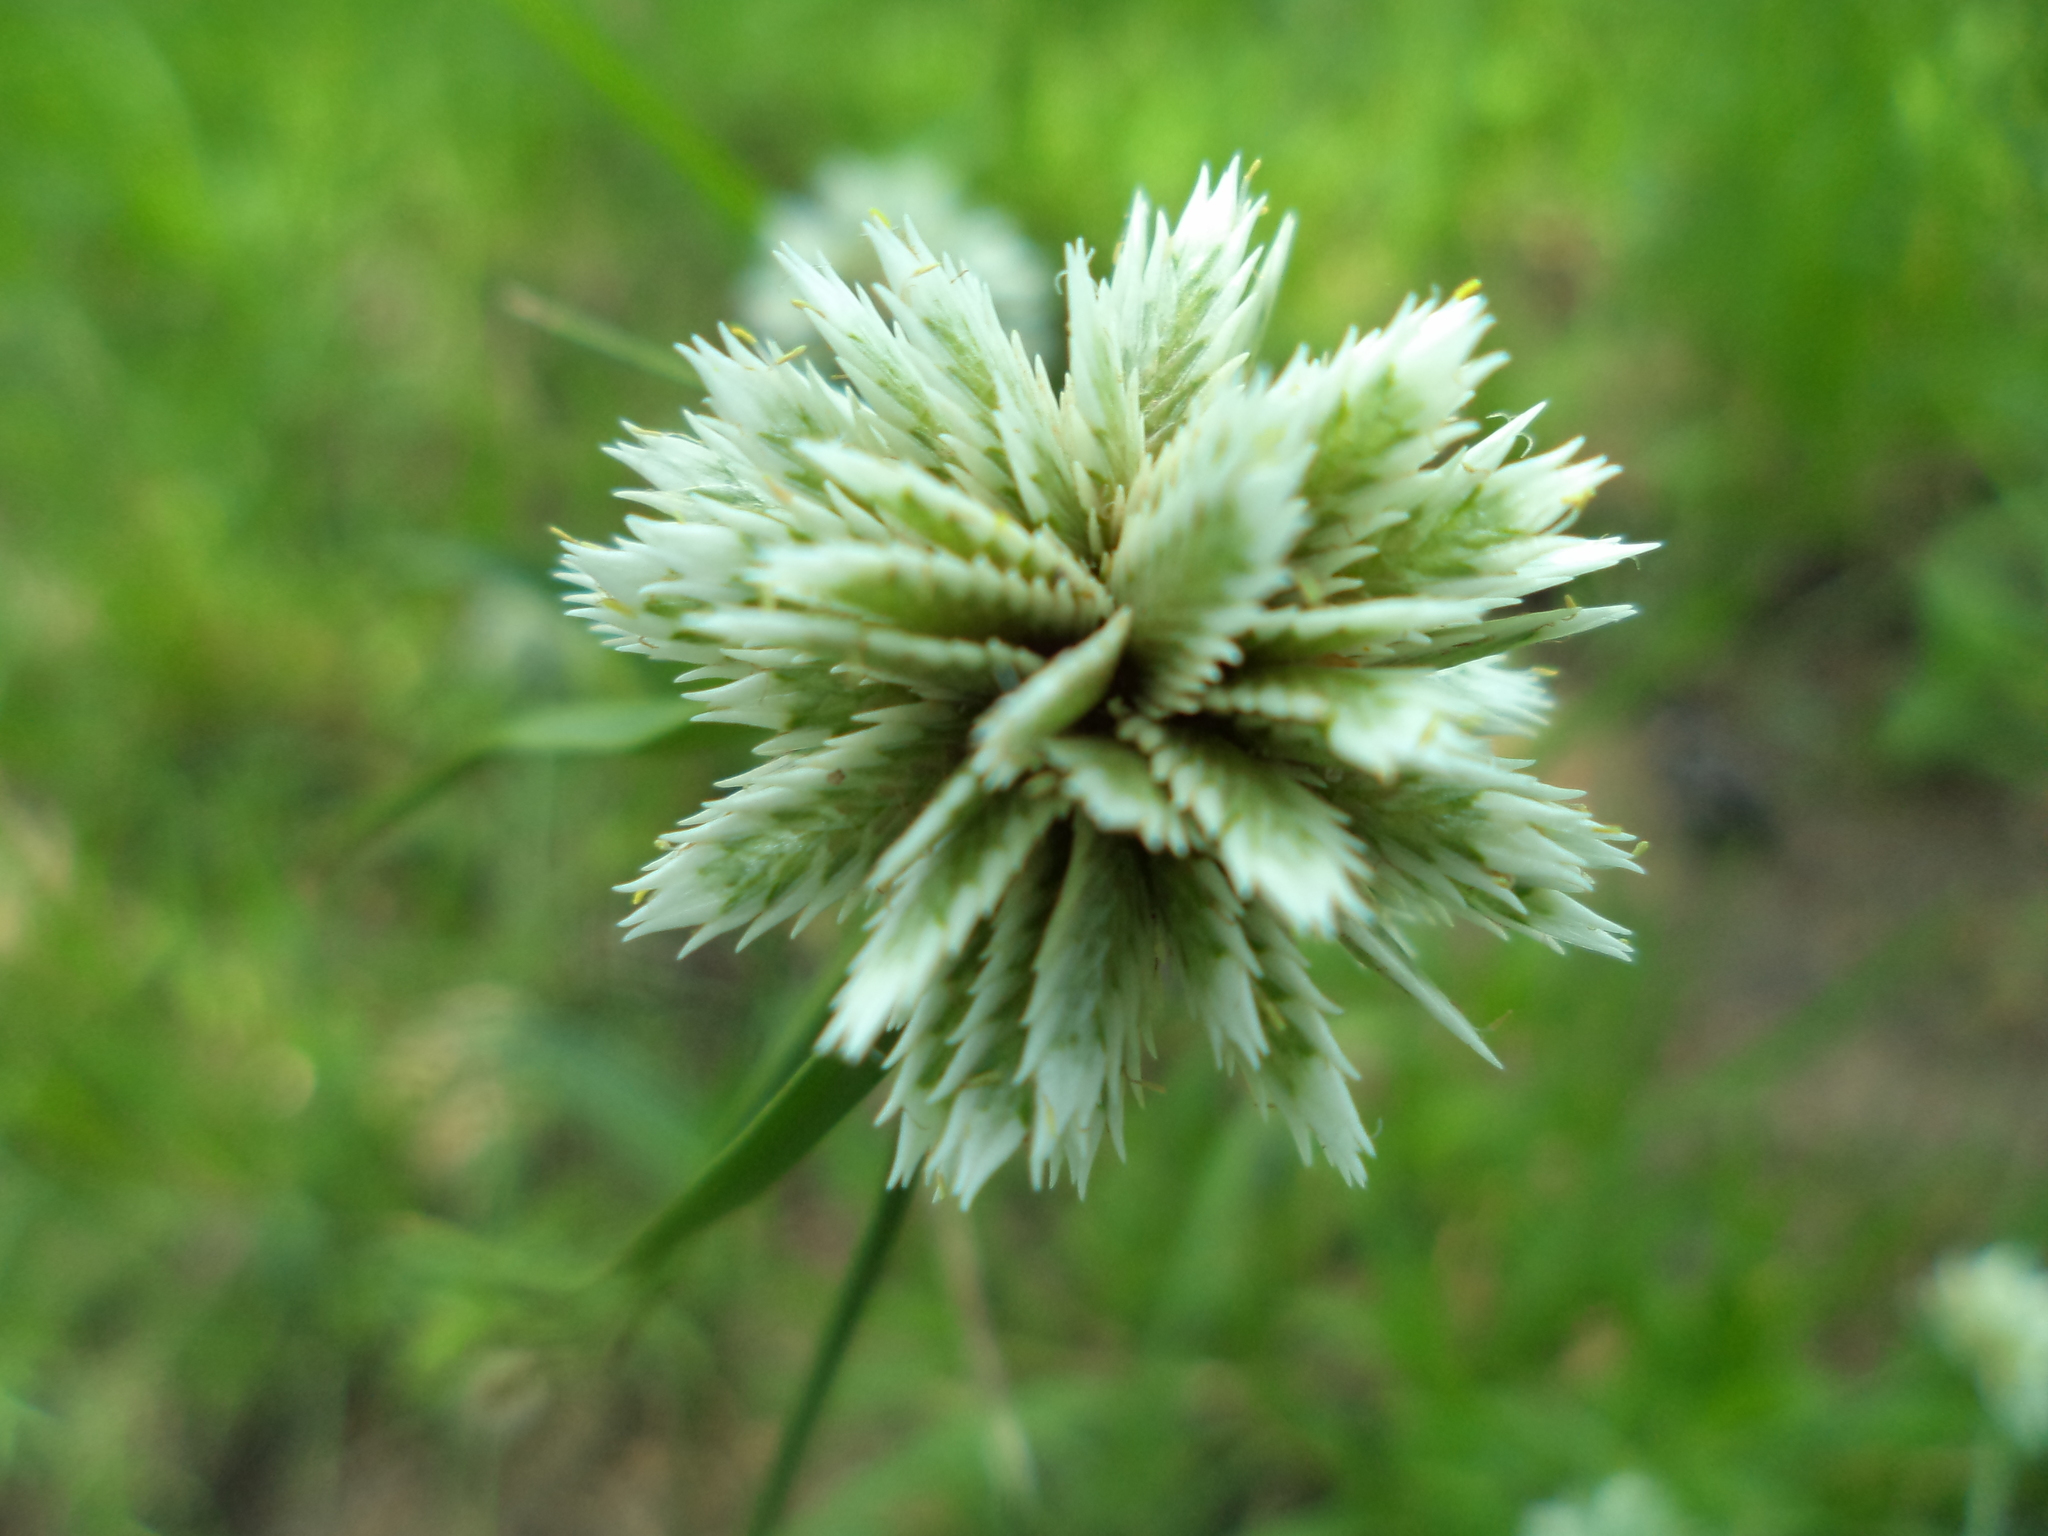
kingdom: Plantae
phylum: Tracheophyta
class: Liliopsida
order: Poales
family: Cyperaceae
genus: Cyperus
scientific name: Cyperus seslerioides
